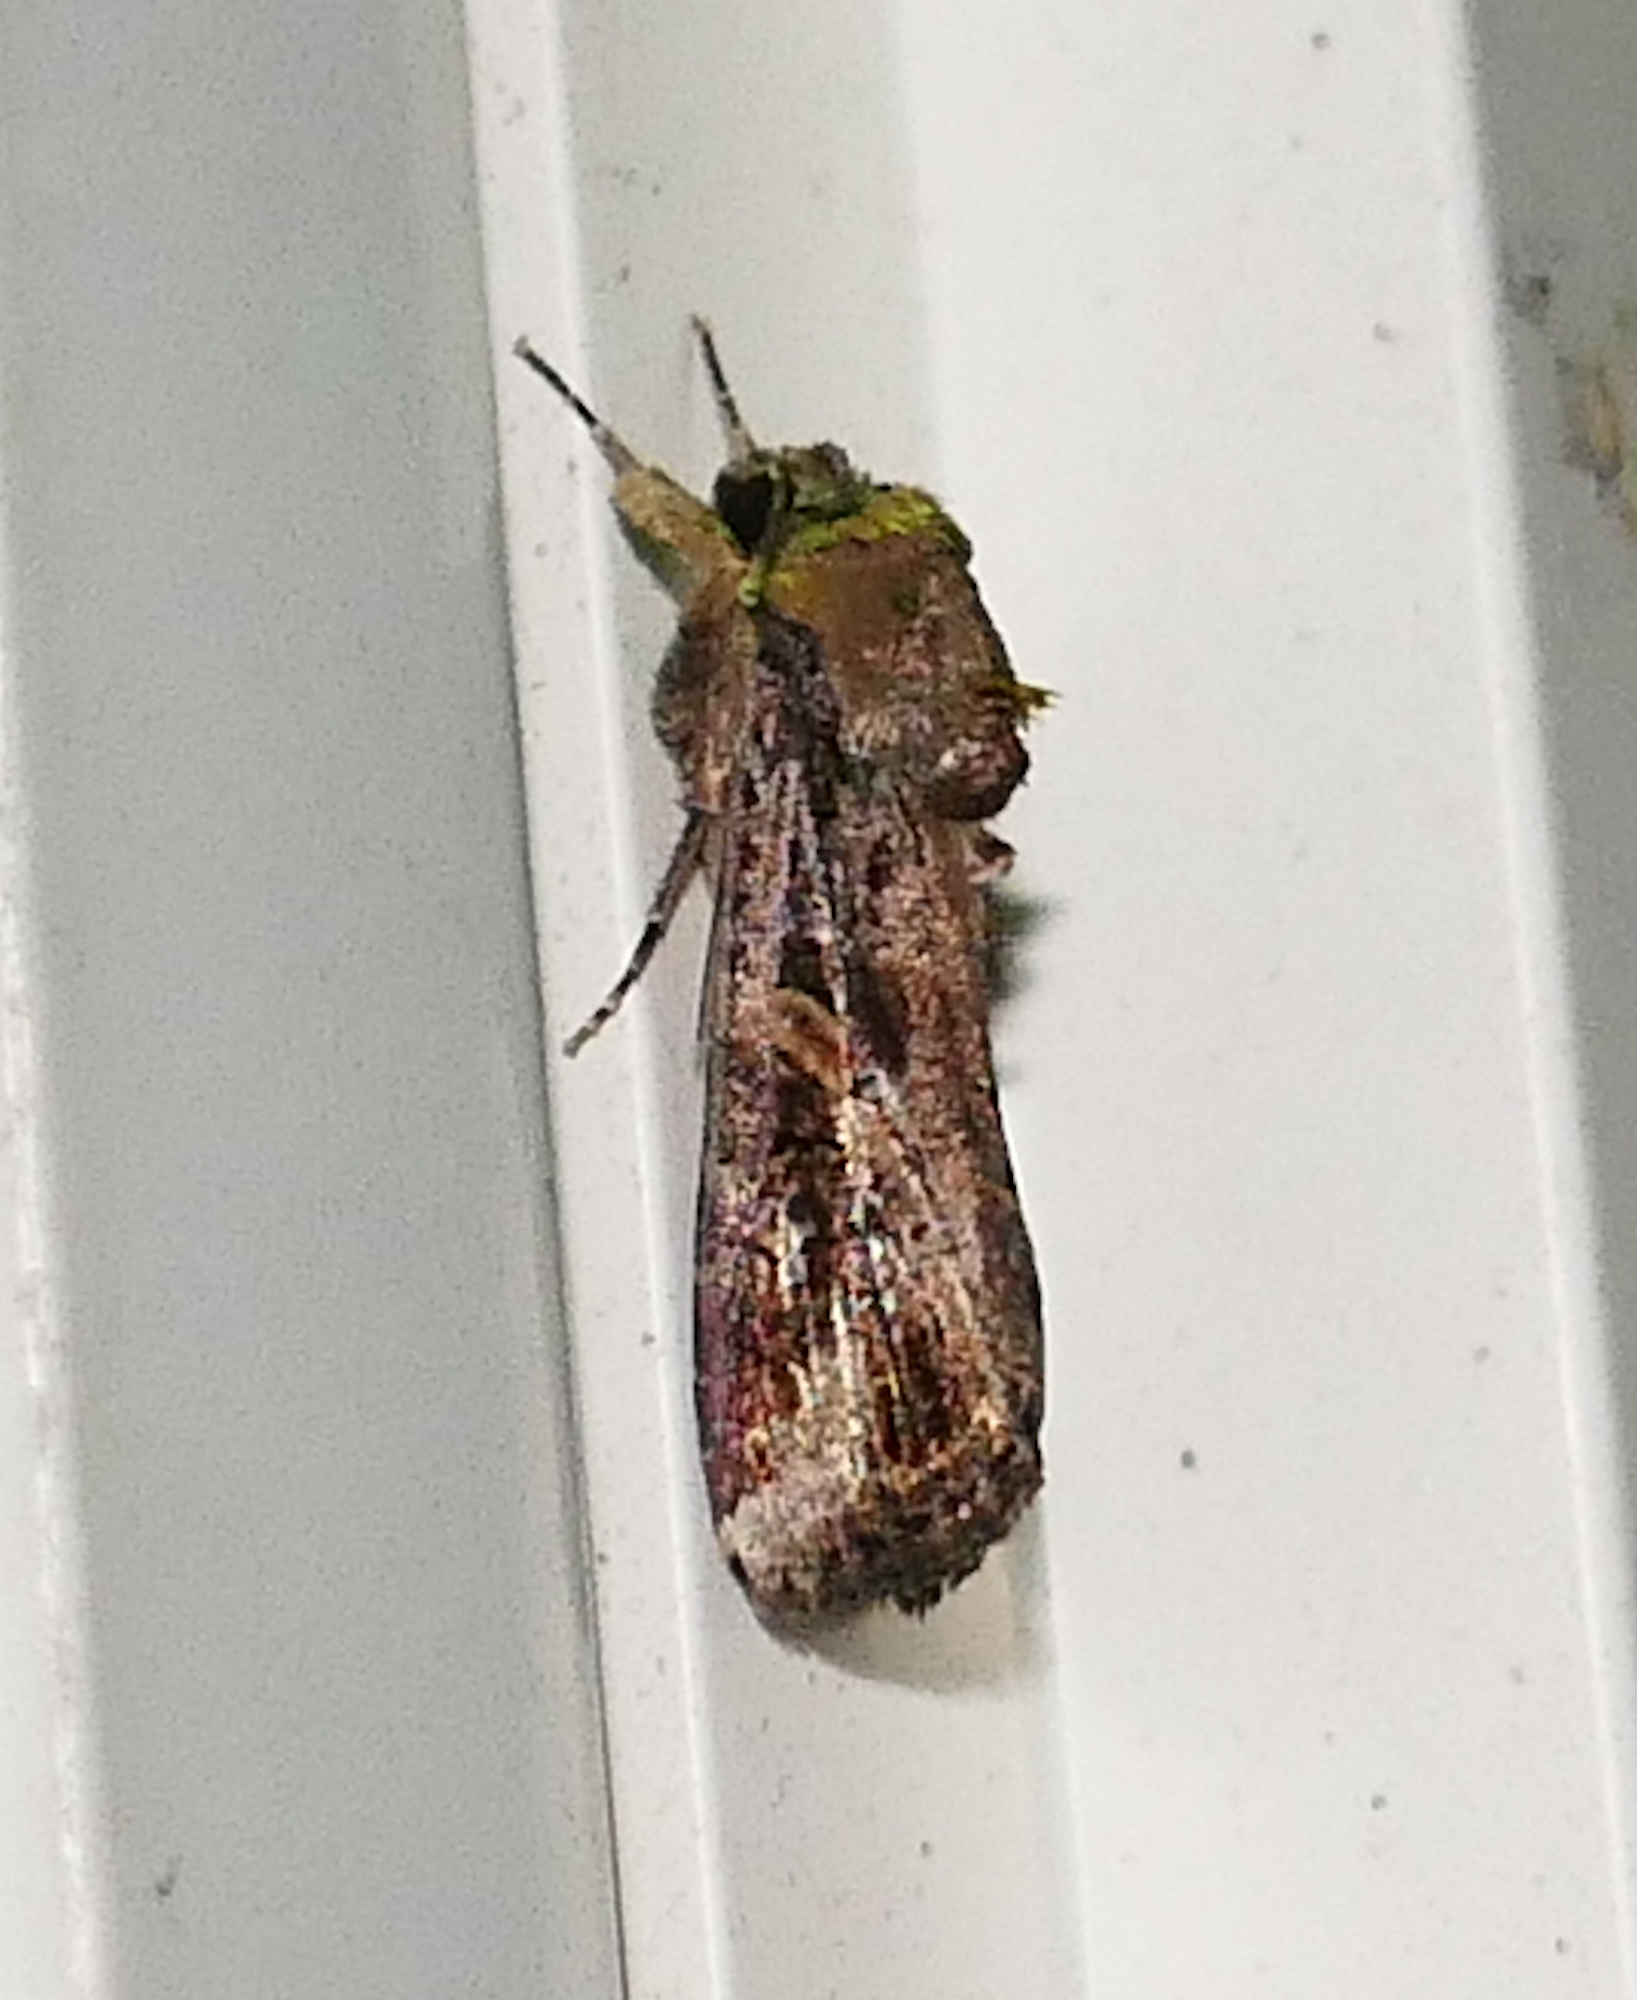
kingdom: Animalia
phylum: Arthropoda
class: Insecta
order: Lepidoptera
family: Noctuidae
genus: Spodoptera
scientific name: Spodoptera frugiperda
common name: Fall armyworm
